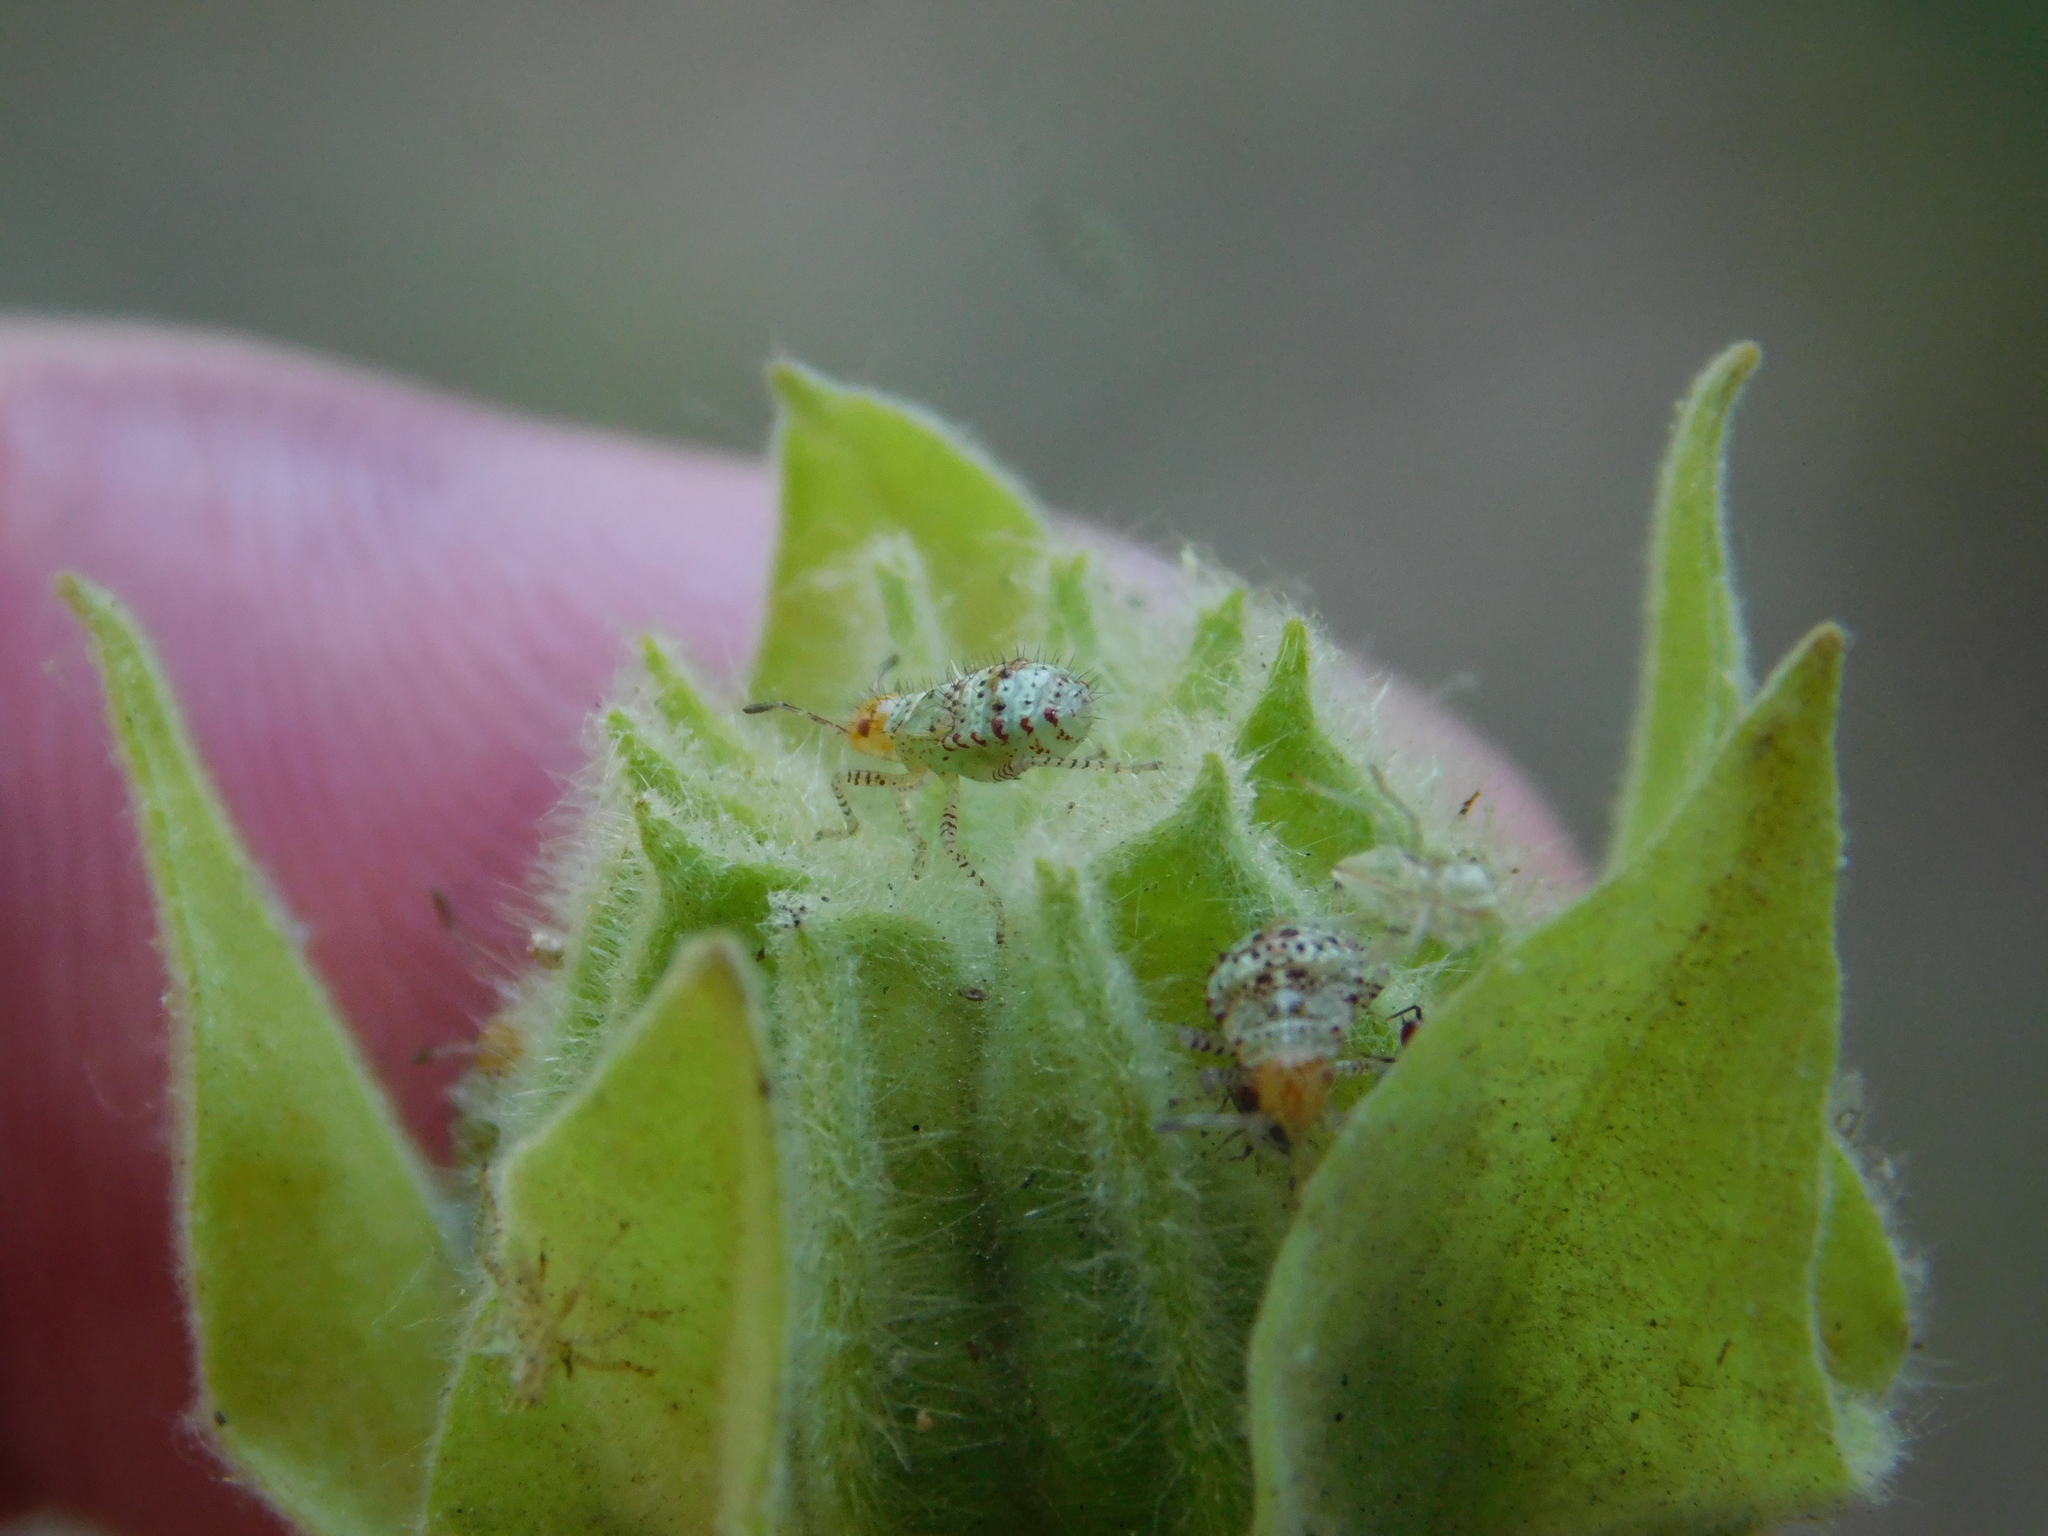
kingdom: Animalia
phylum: Arthropoda
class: Insecta
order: Hemiptera
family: Rhopalidae
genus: Niesthrea
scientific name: Niesthrea
